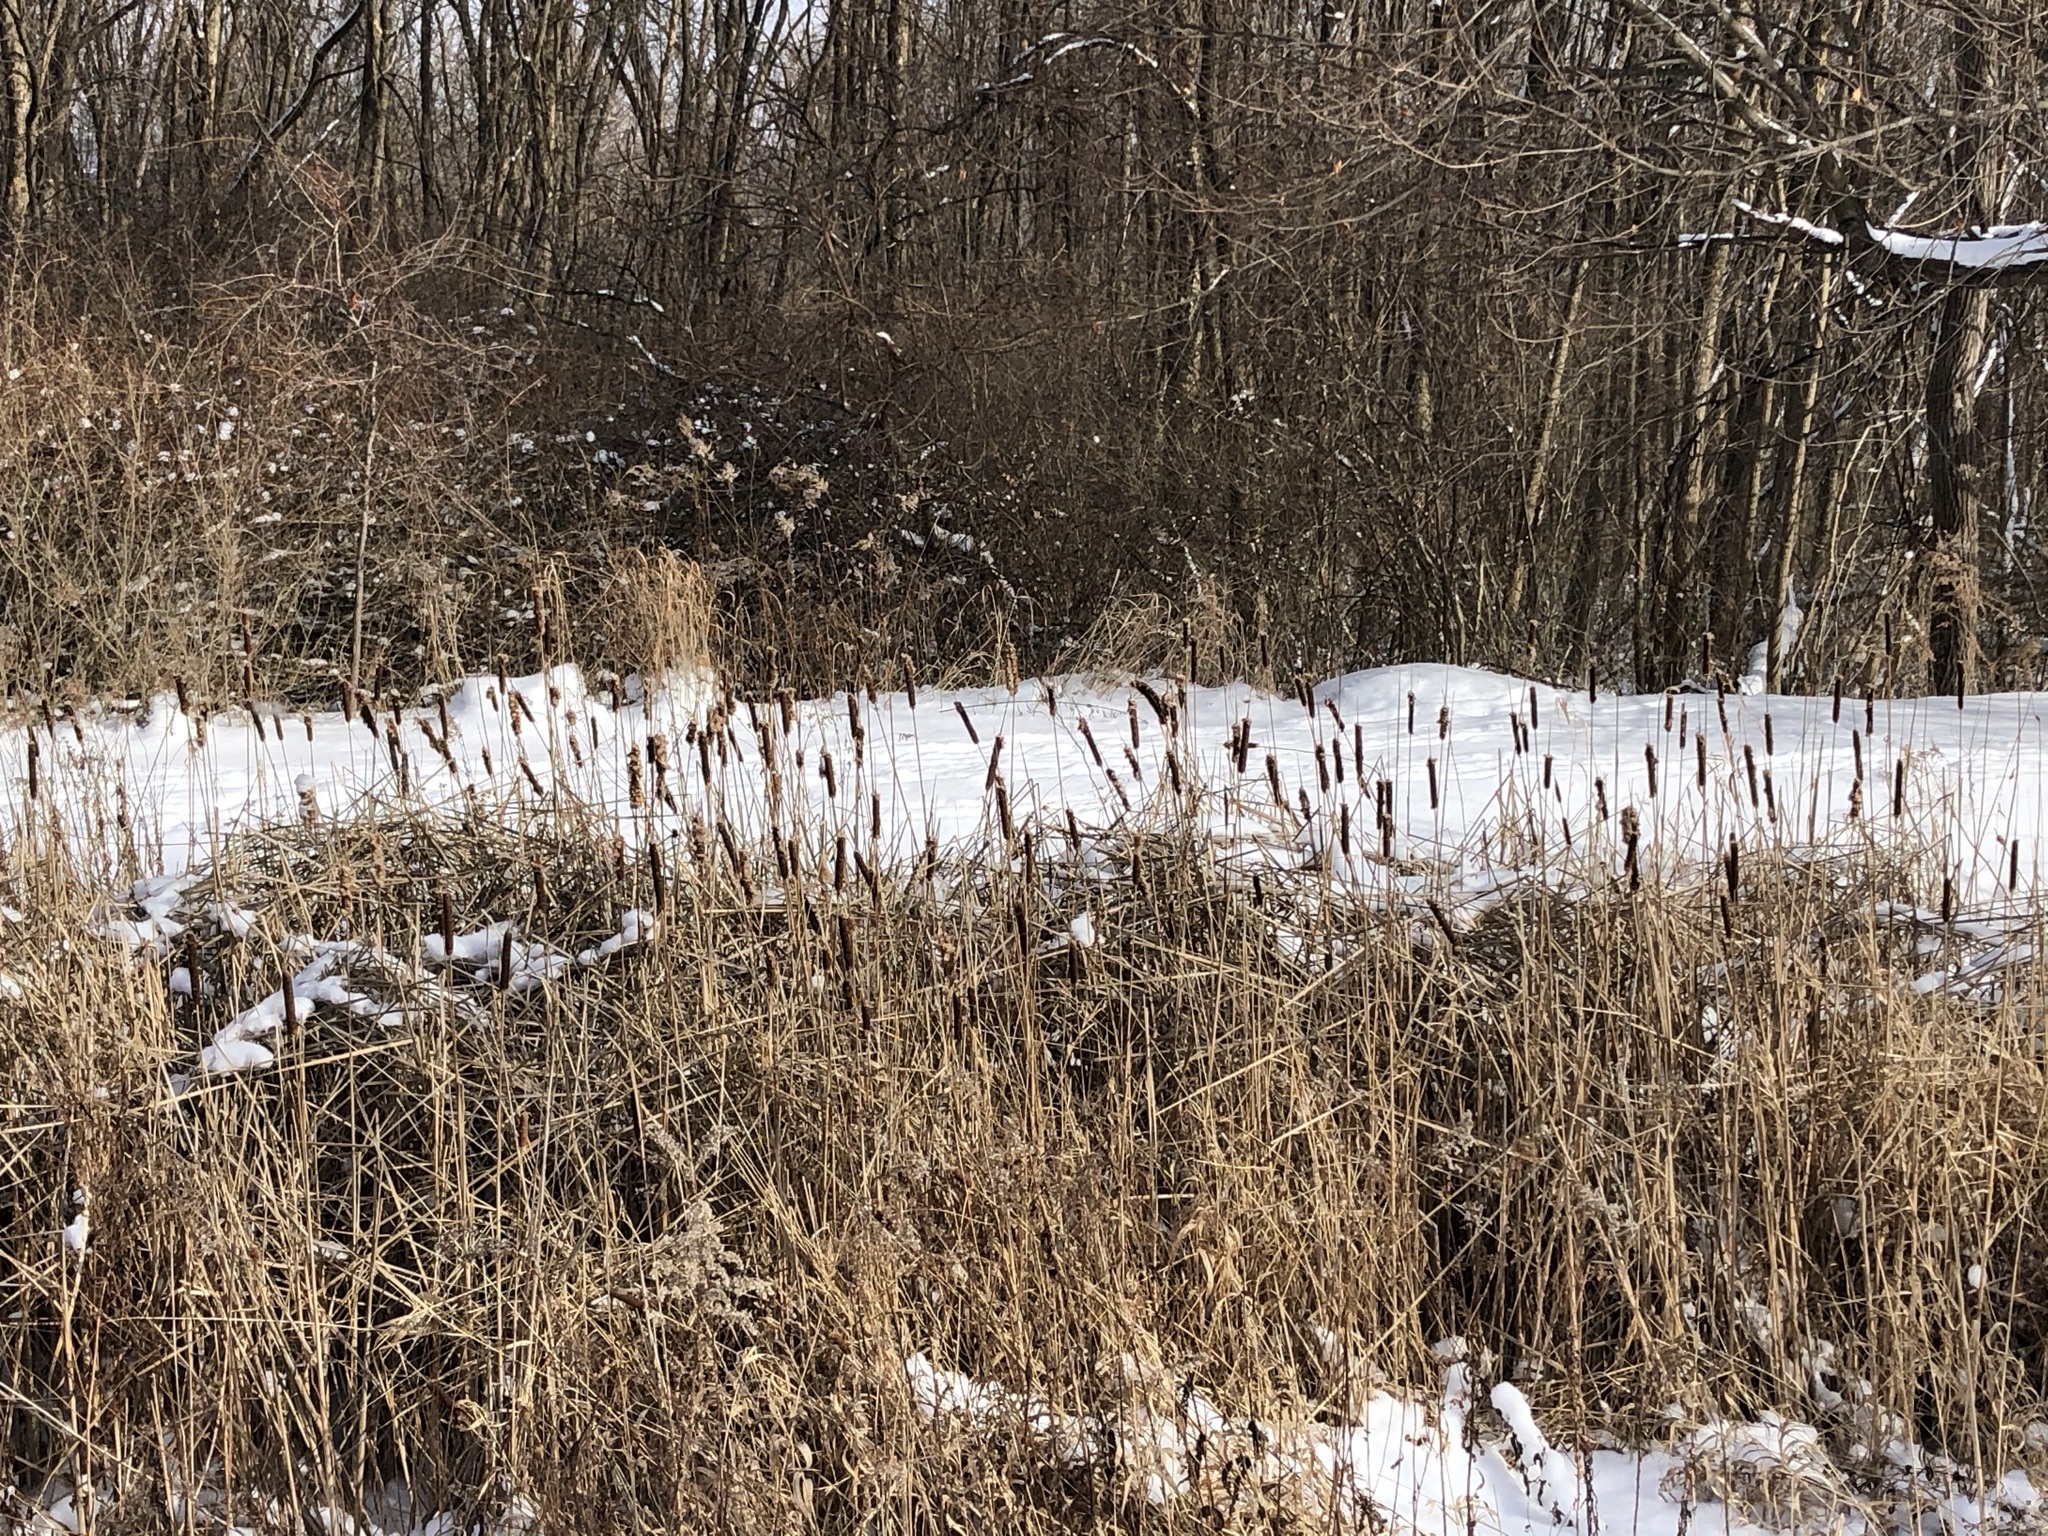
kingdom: Plantae
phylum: Tracheophyta
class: Liliopsida
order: Poales
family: Typhaceae
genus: Typha
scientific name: Typha
